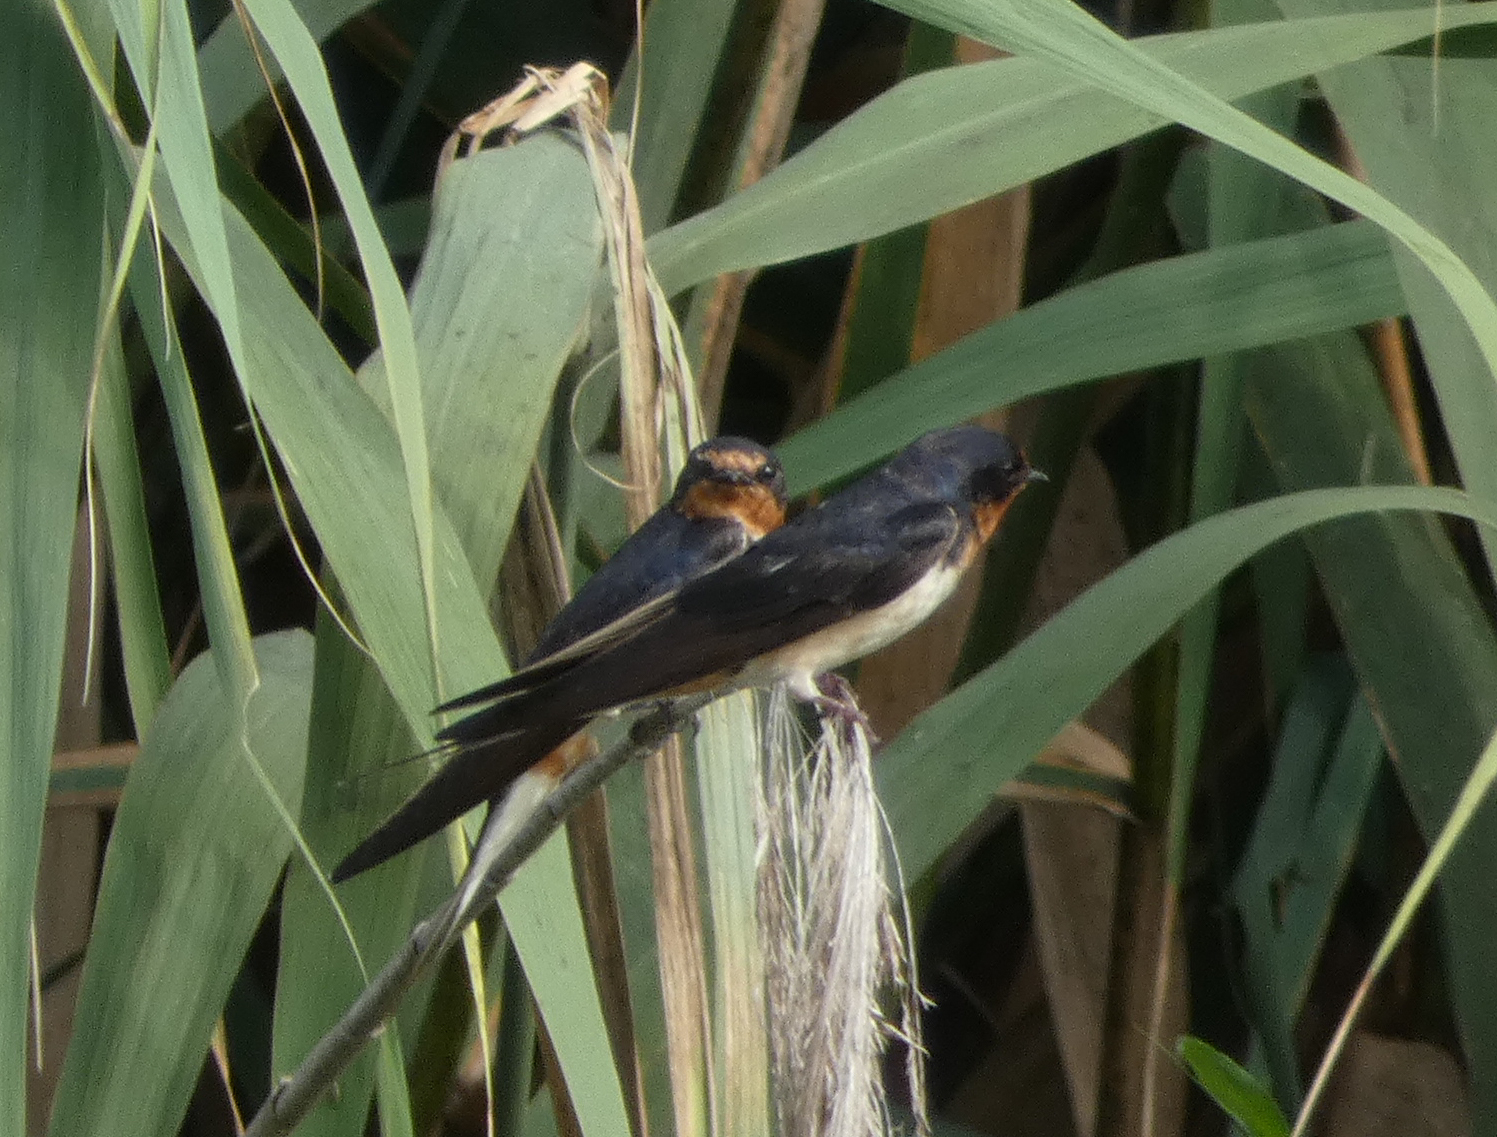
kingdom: Animalia
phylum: Chordata
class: Aves
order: Passeriformes
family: Hirundinidae
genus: Hirundo
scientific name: Hirundo rustica
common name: Barn swallow
